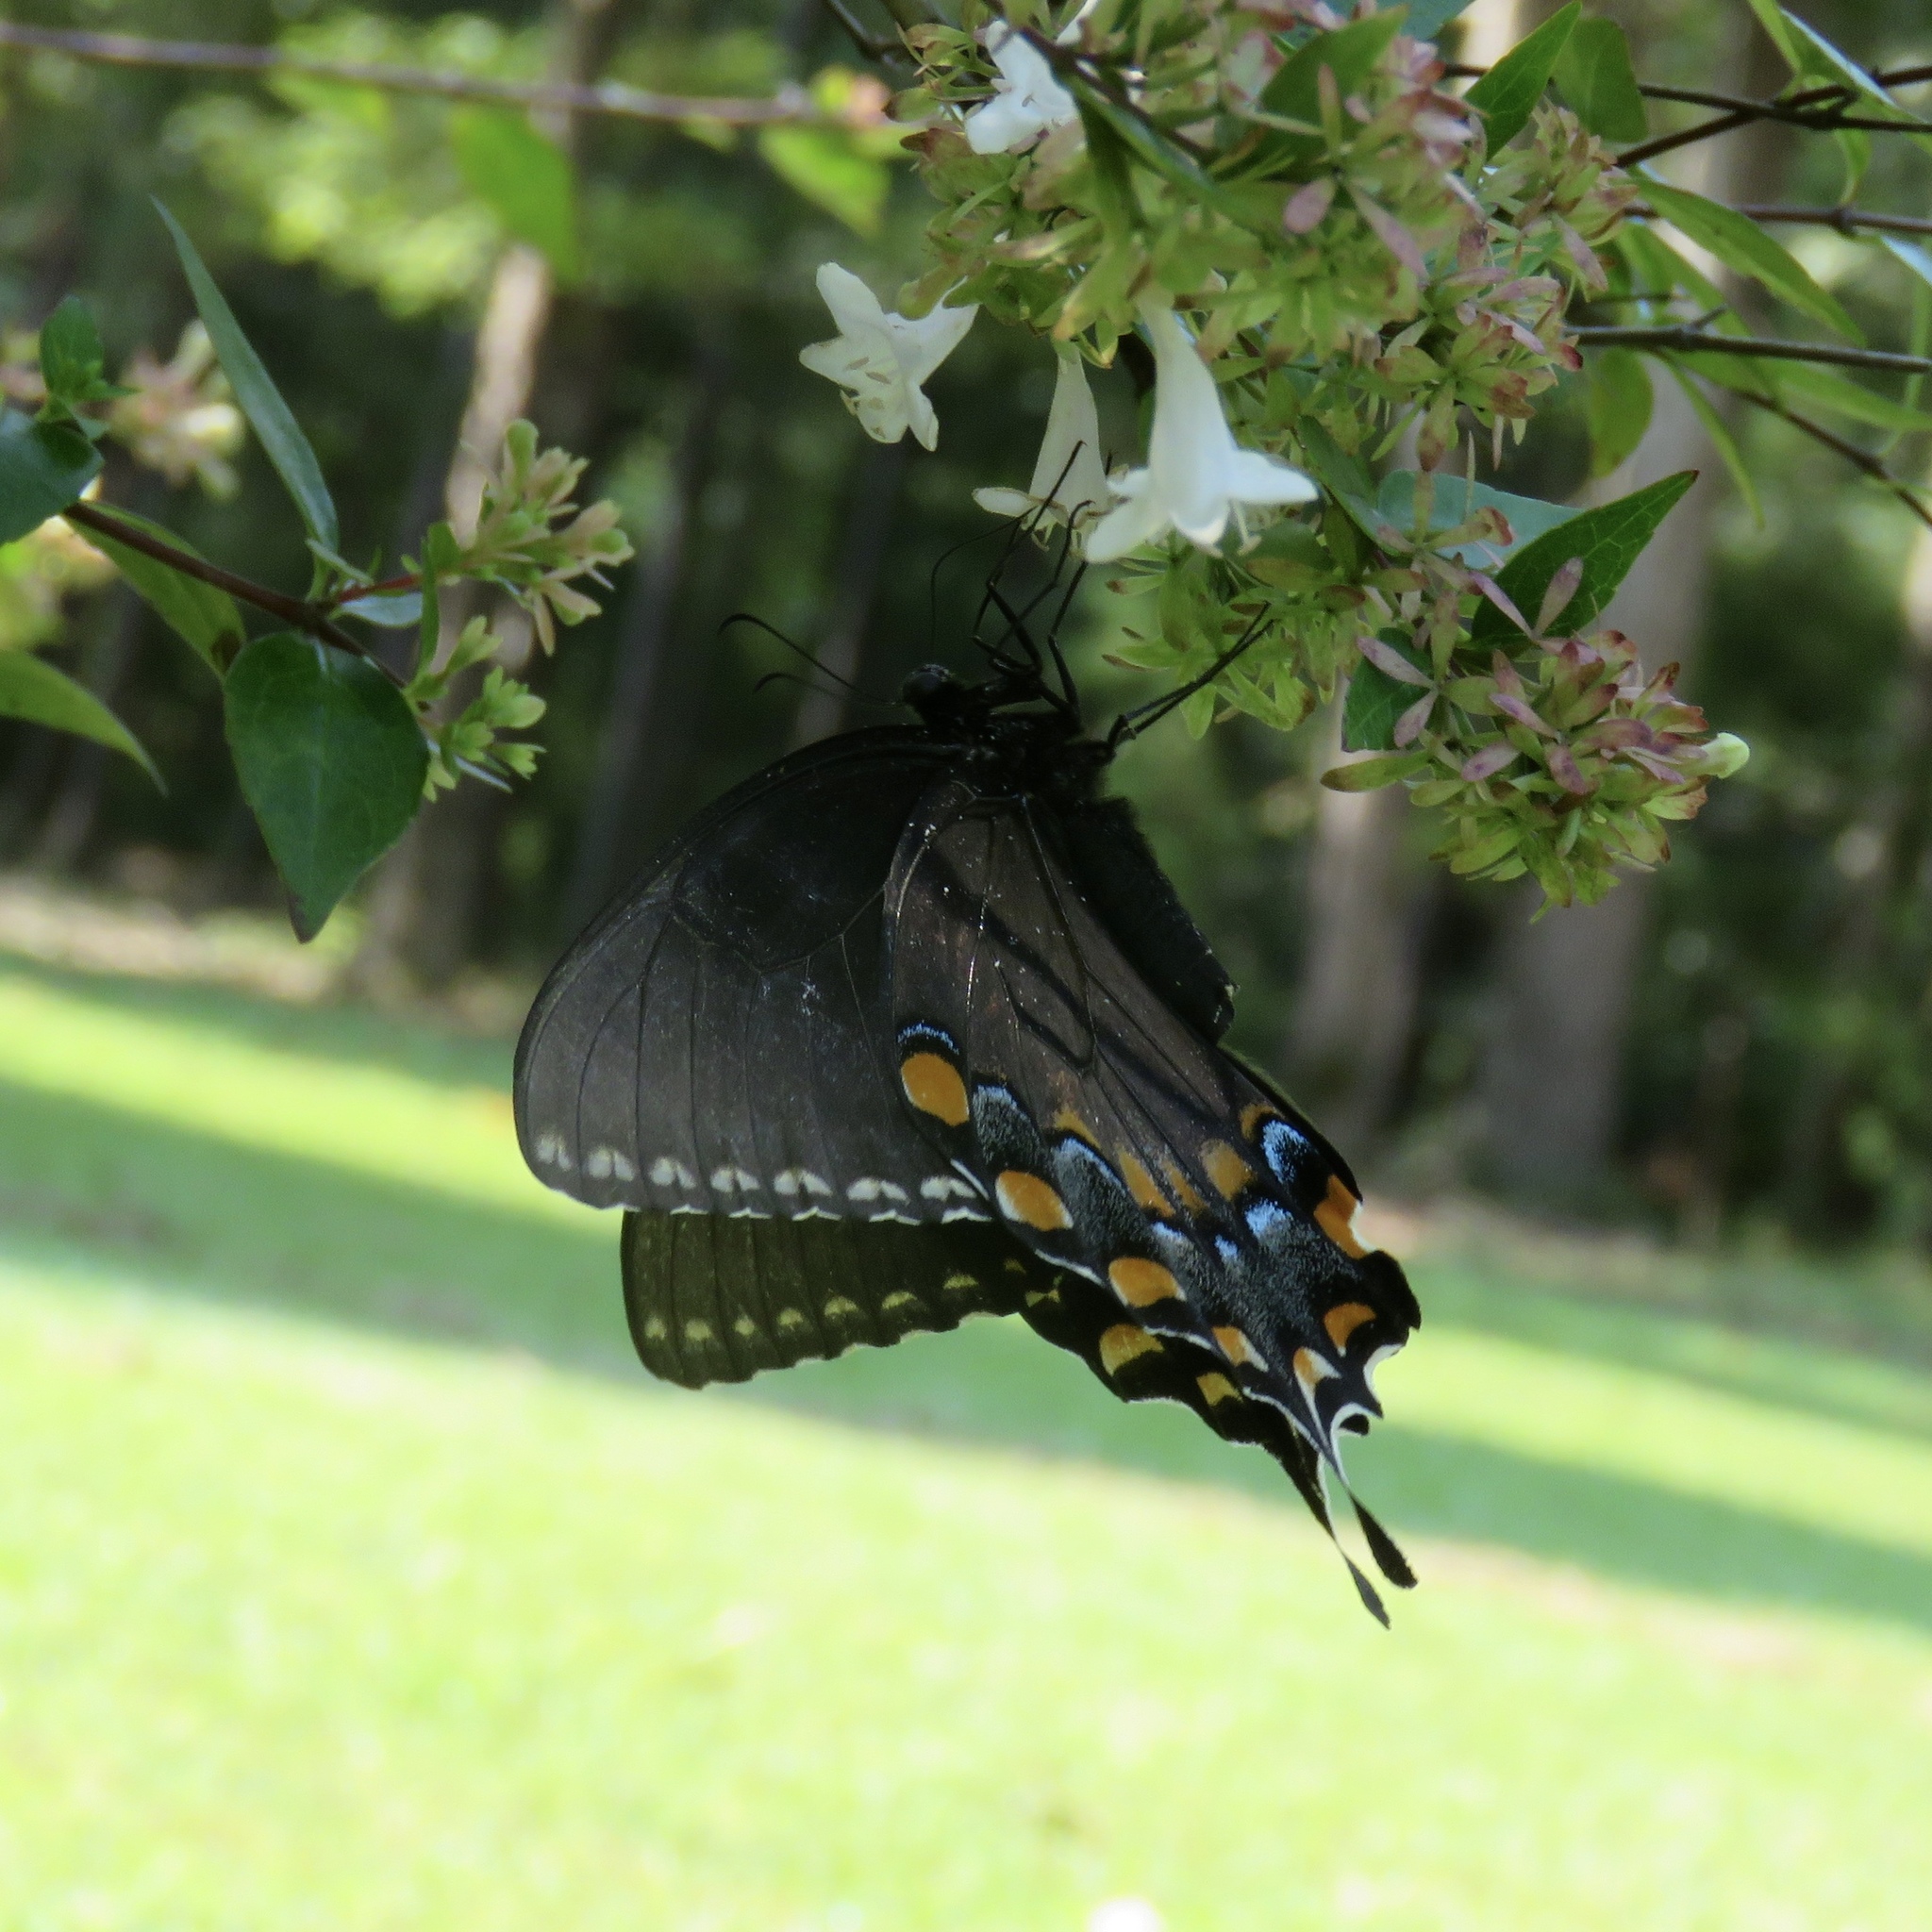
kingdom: Animalia
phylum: Arthropoda
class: Insecta
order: Lepidoptera
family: Papilionidae
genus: Papilio
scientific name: Papilio glaucus
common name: Tiger swallowtail
